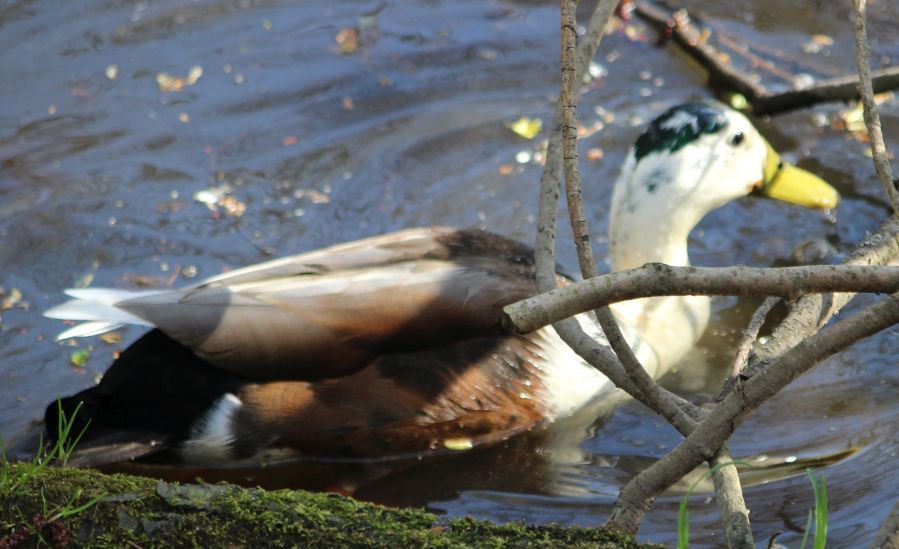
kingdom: Animalia
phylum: Chordata
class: Aves
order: Anseriformes
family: Anatidae
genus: Anas
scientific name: Anas platyrhynchos
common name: Mallard
